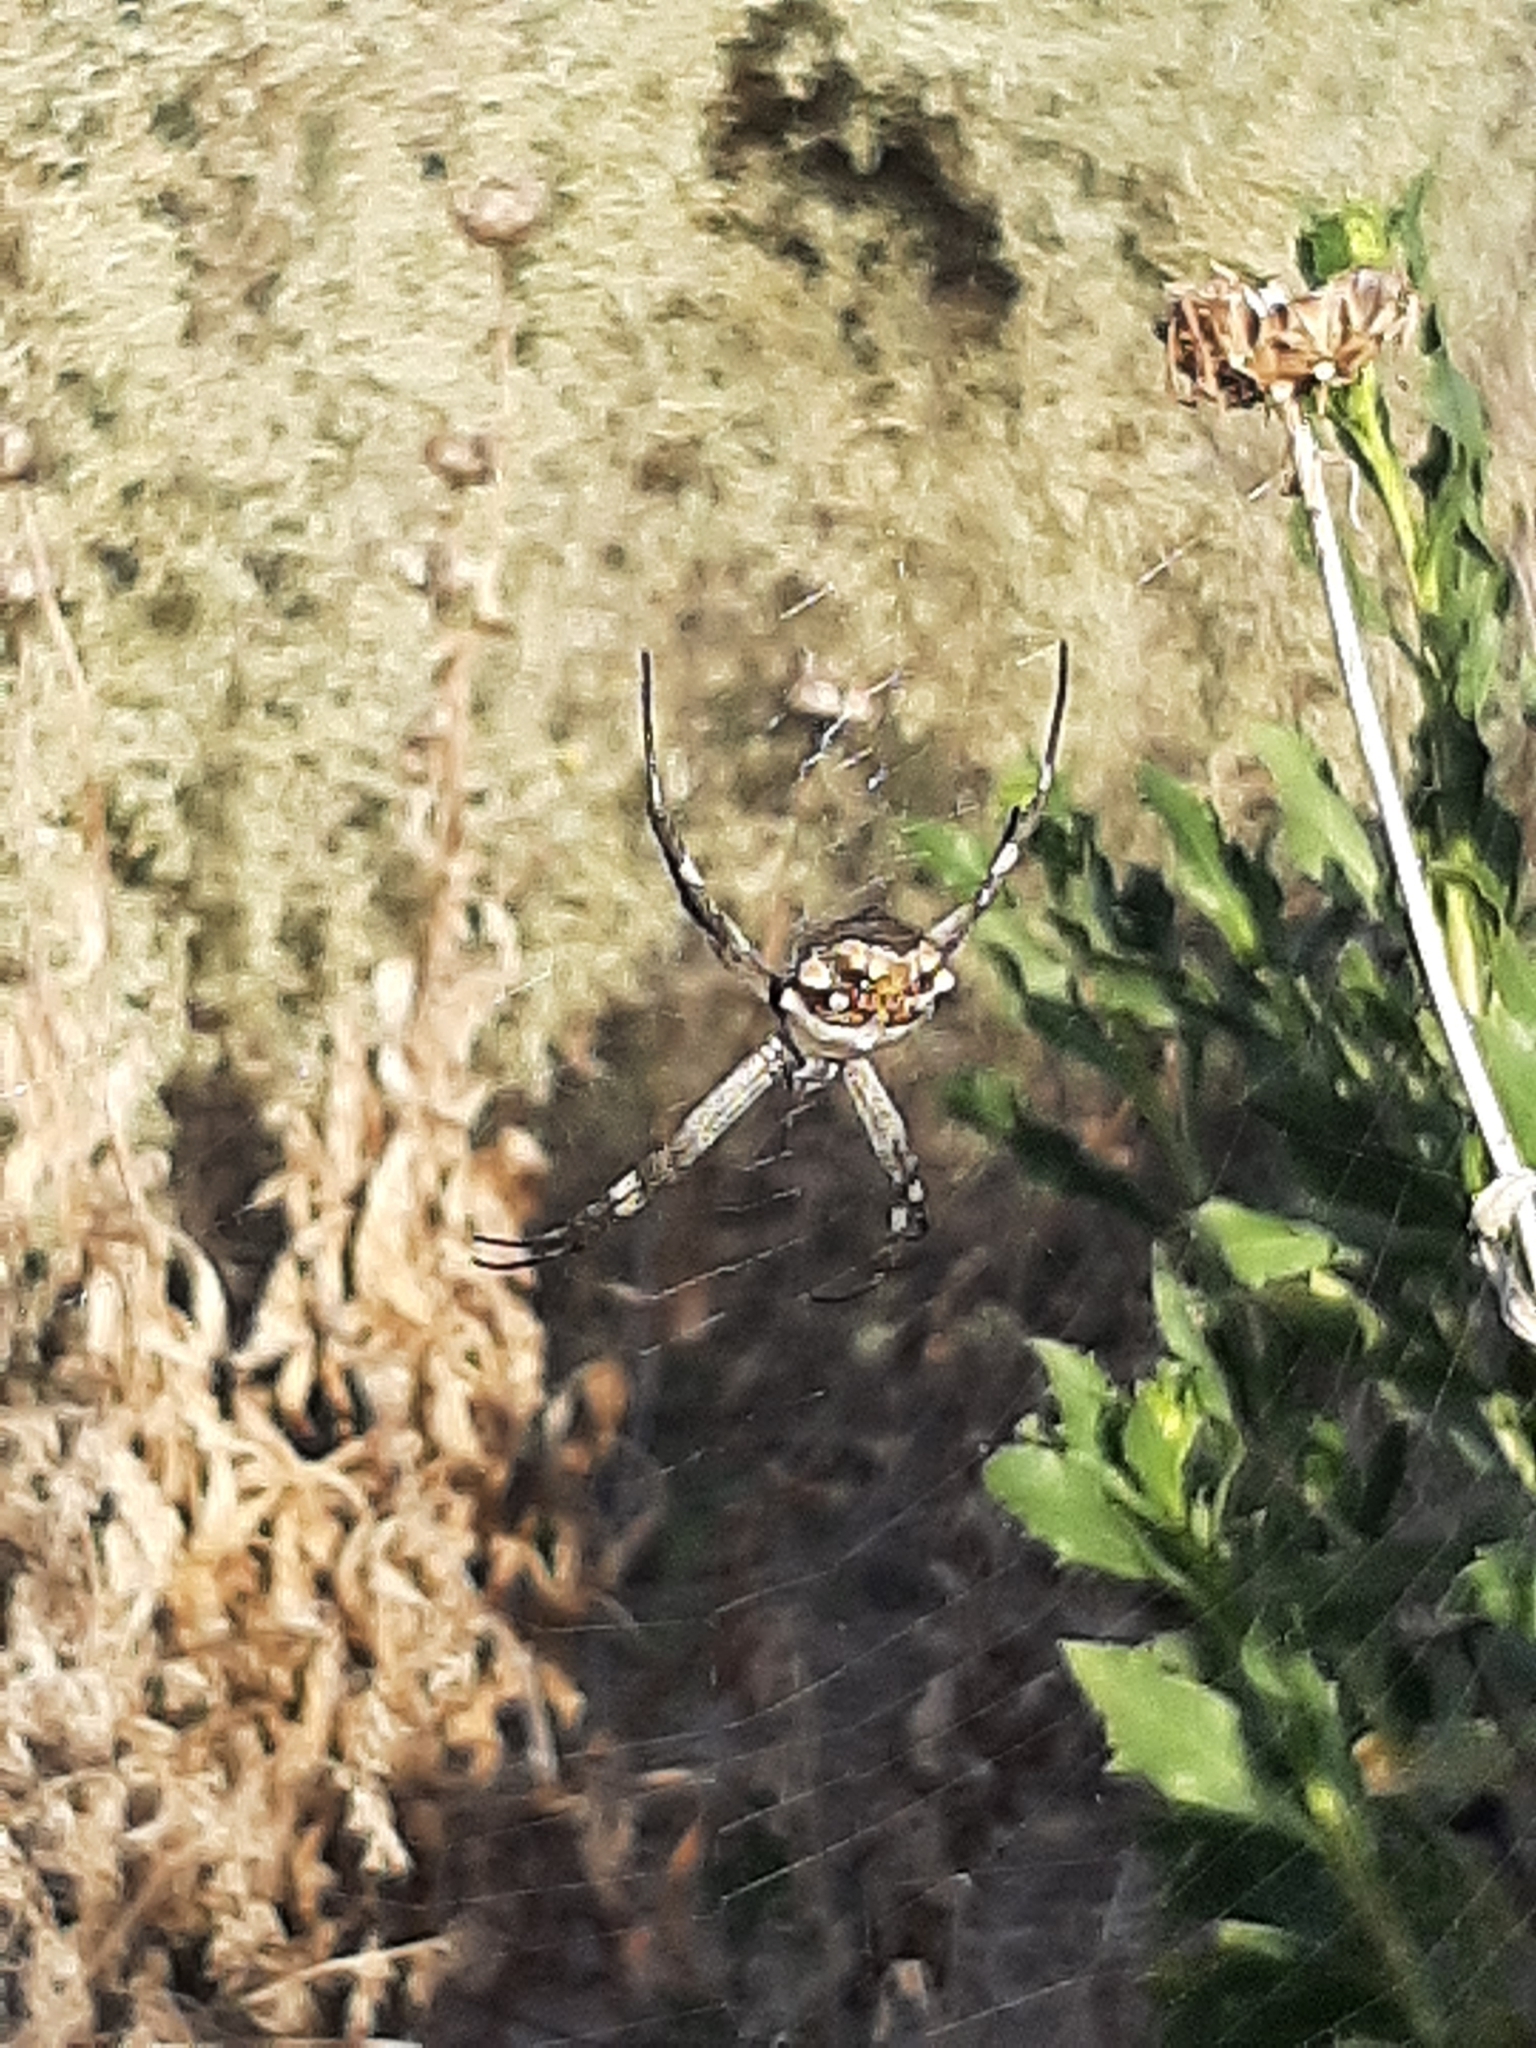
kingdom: Animalia
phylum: Arthropoda
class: Arachnida
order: Araneae
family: Araneidae
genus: Argiope
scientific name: Argiope argentata
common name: Orb weavers
